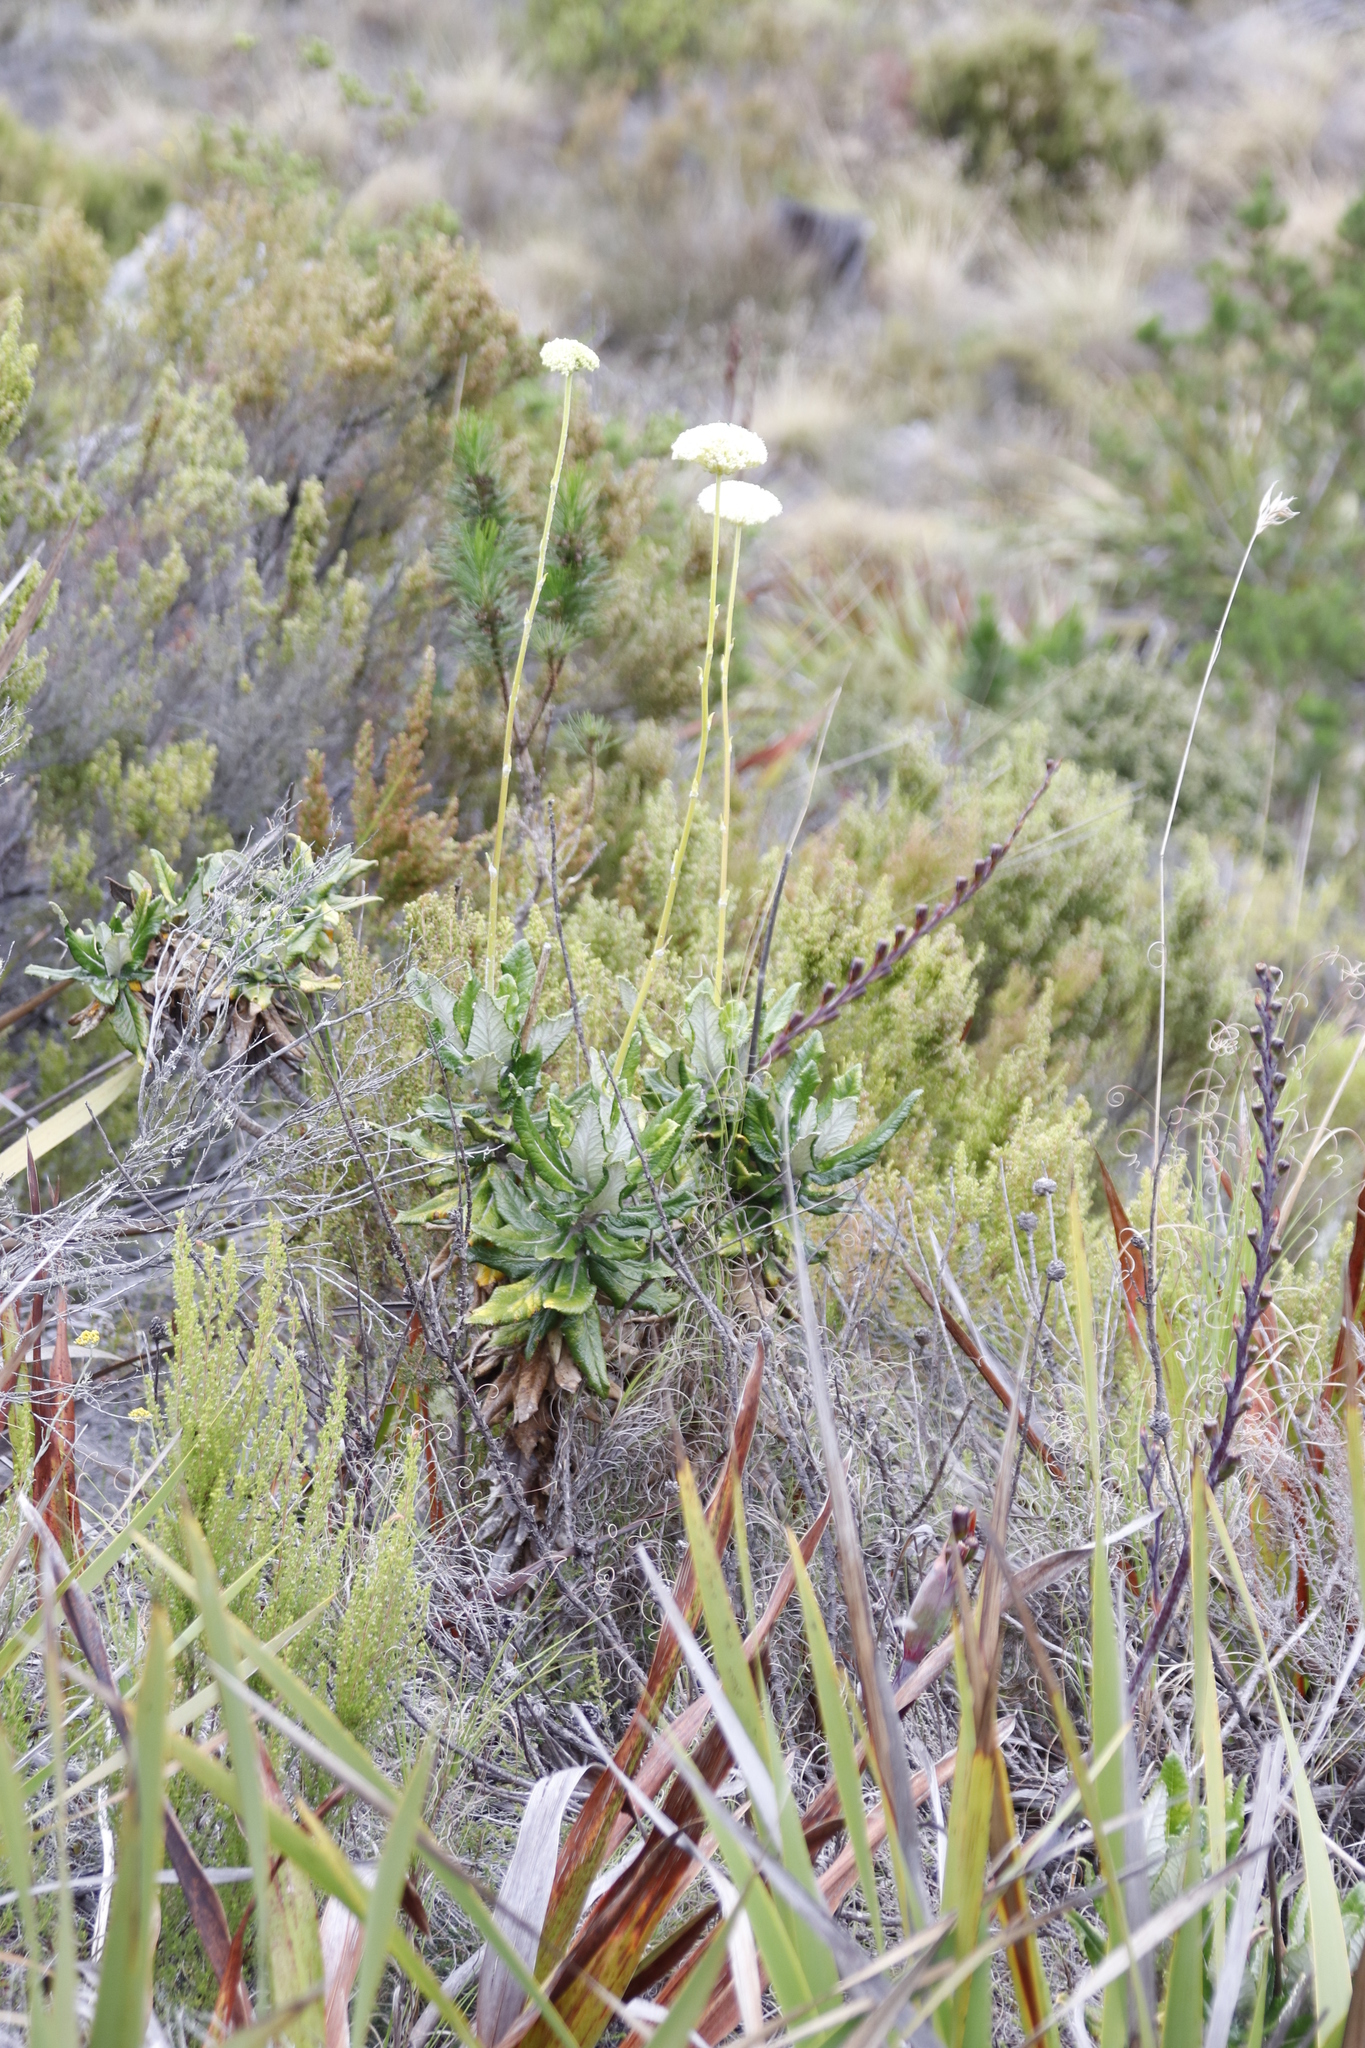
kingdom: Plantae
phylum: Tracheophyta
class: Magnoliopsida
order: Apiales
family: Apiaceae
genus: Hermas
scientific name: Hermas villosa
